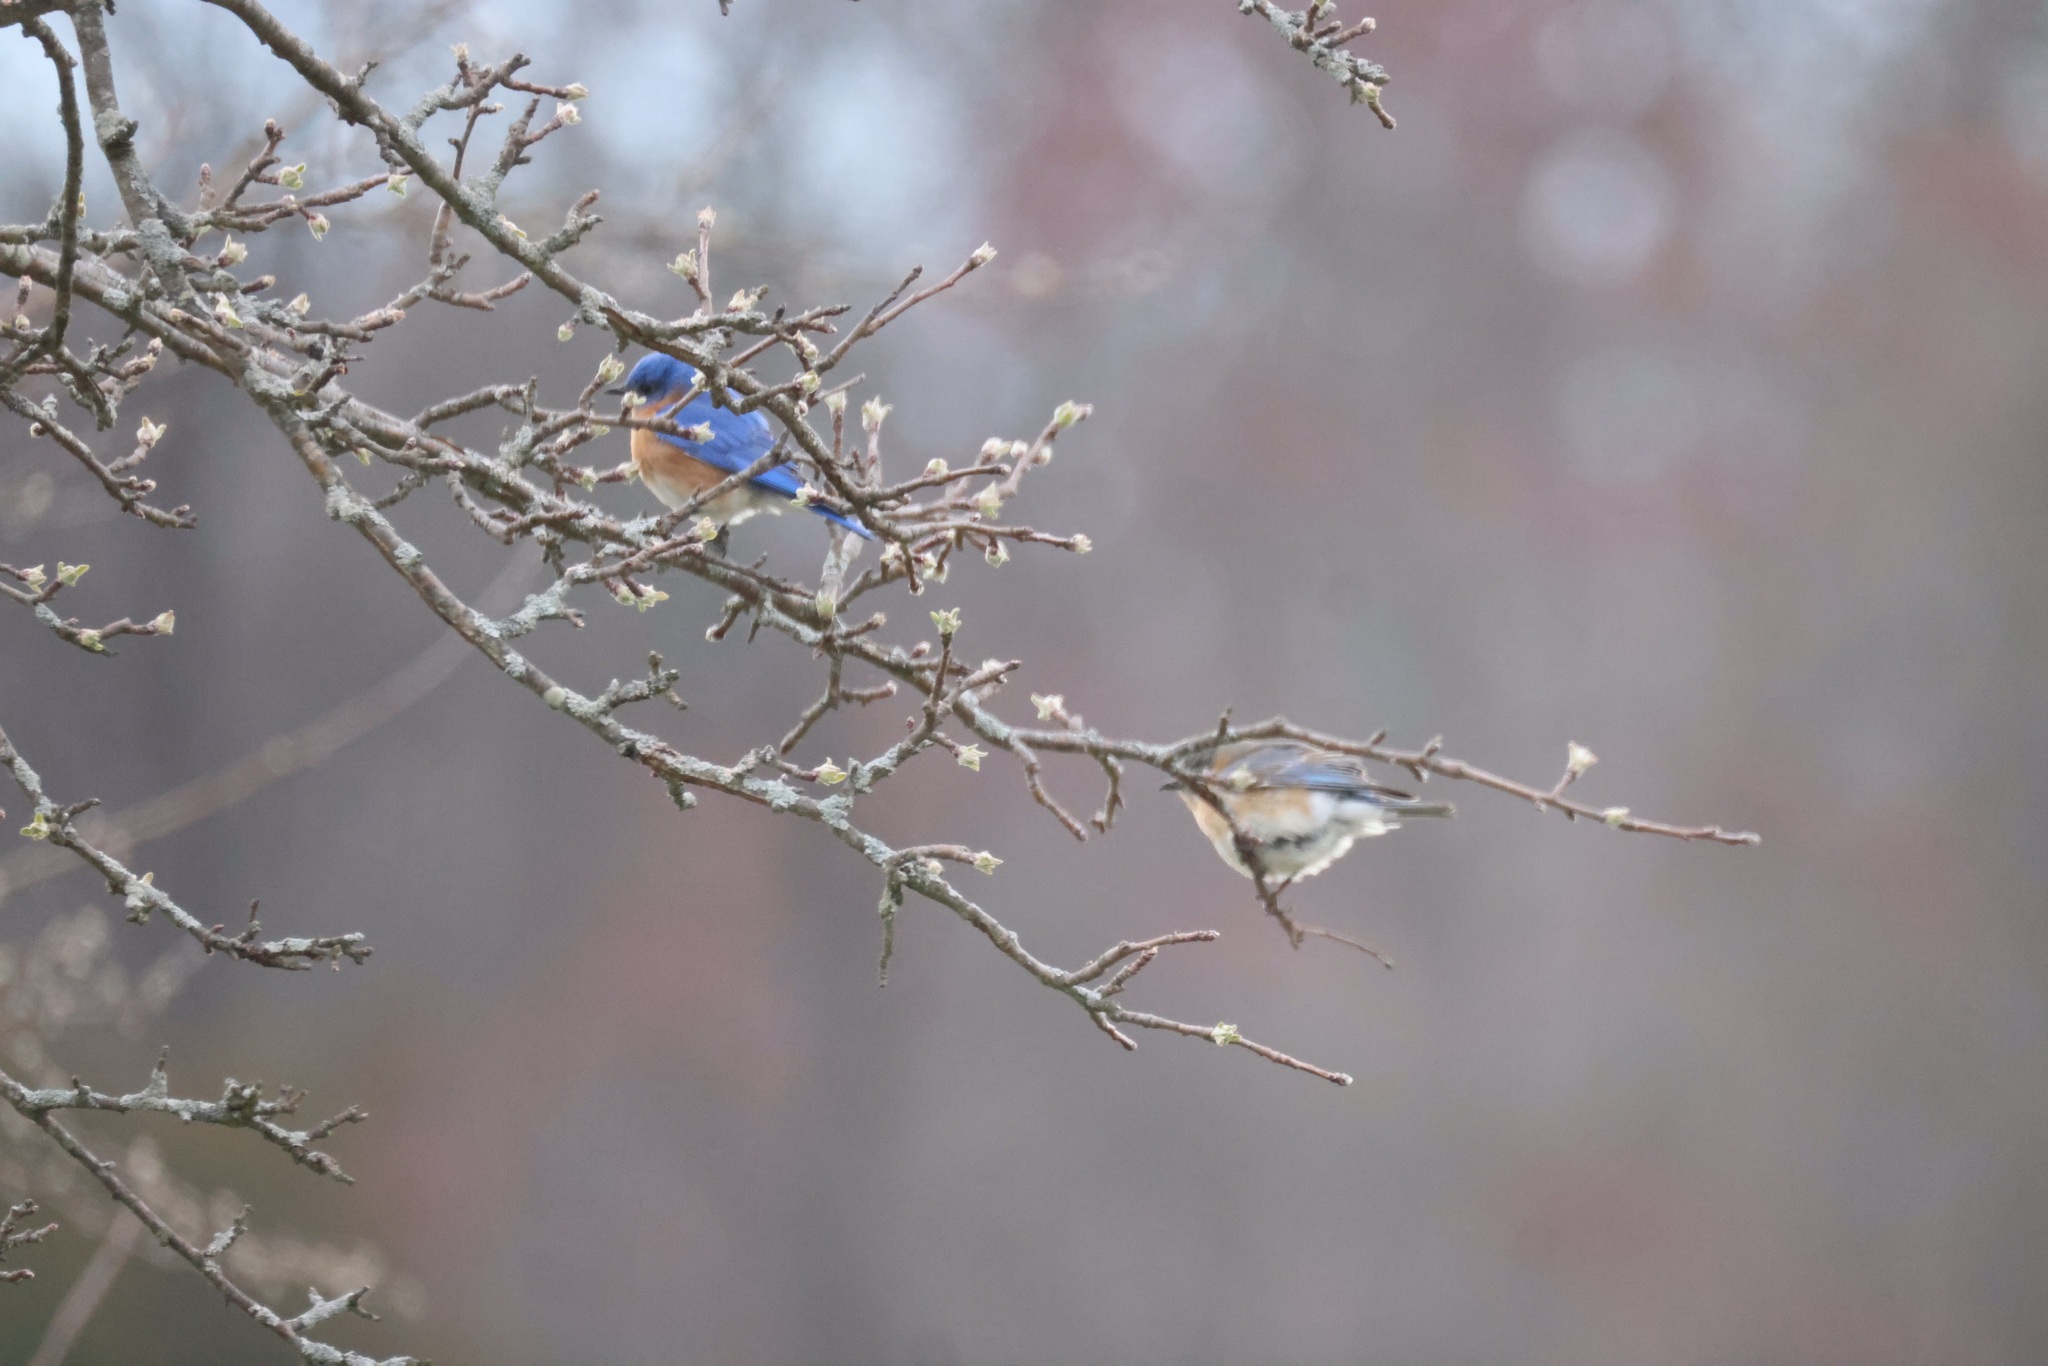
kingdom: Animalia
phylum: Chordata
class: Aves
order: Passeriformes
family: Turdidae
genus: Sialia
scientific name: Sialia sialis
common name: Eastern bluebird
